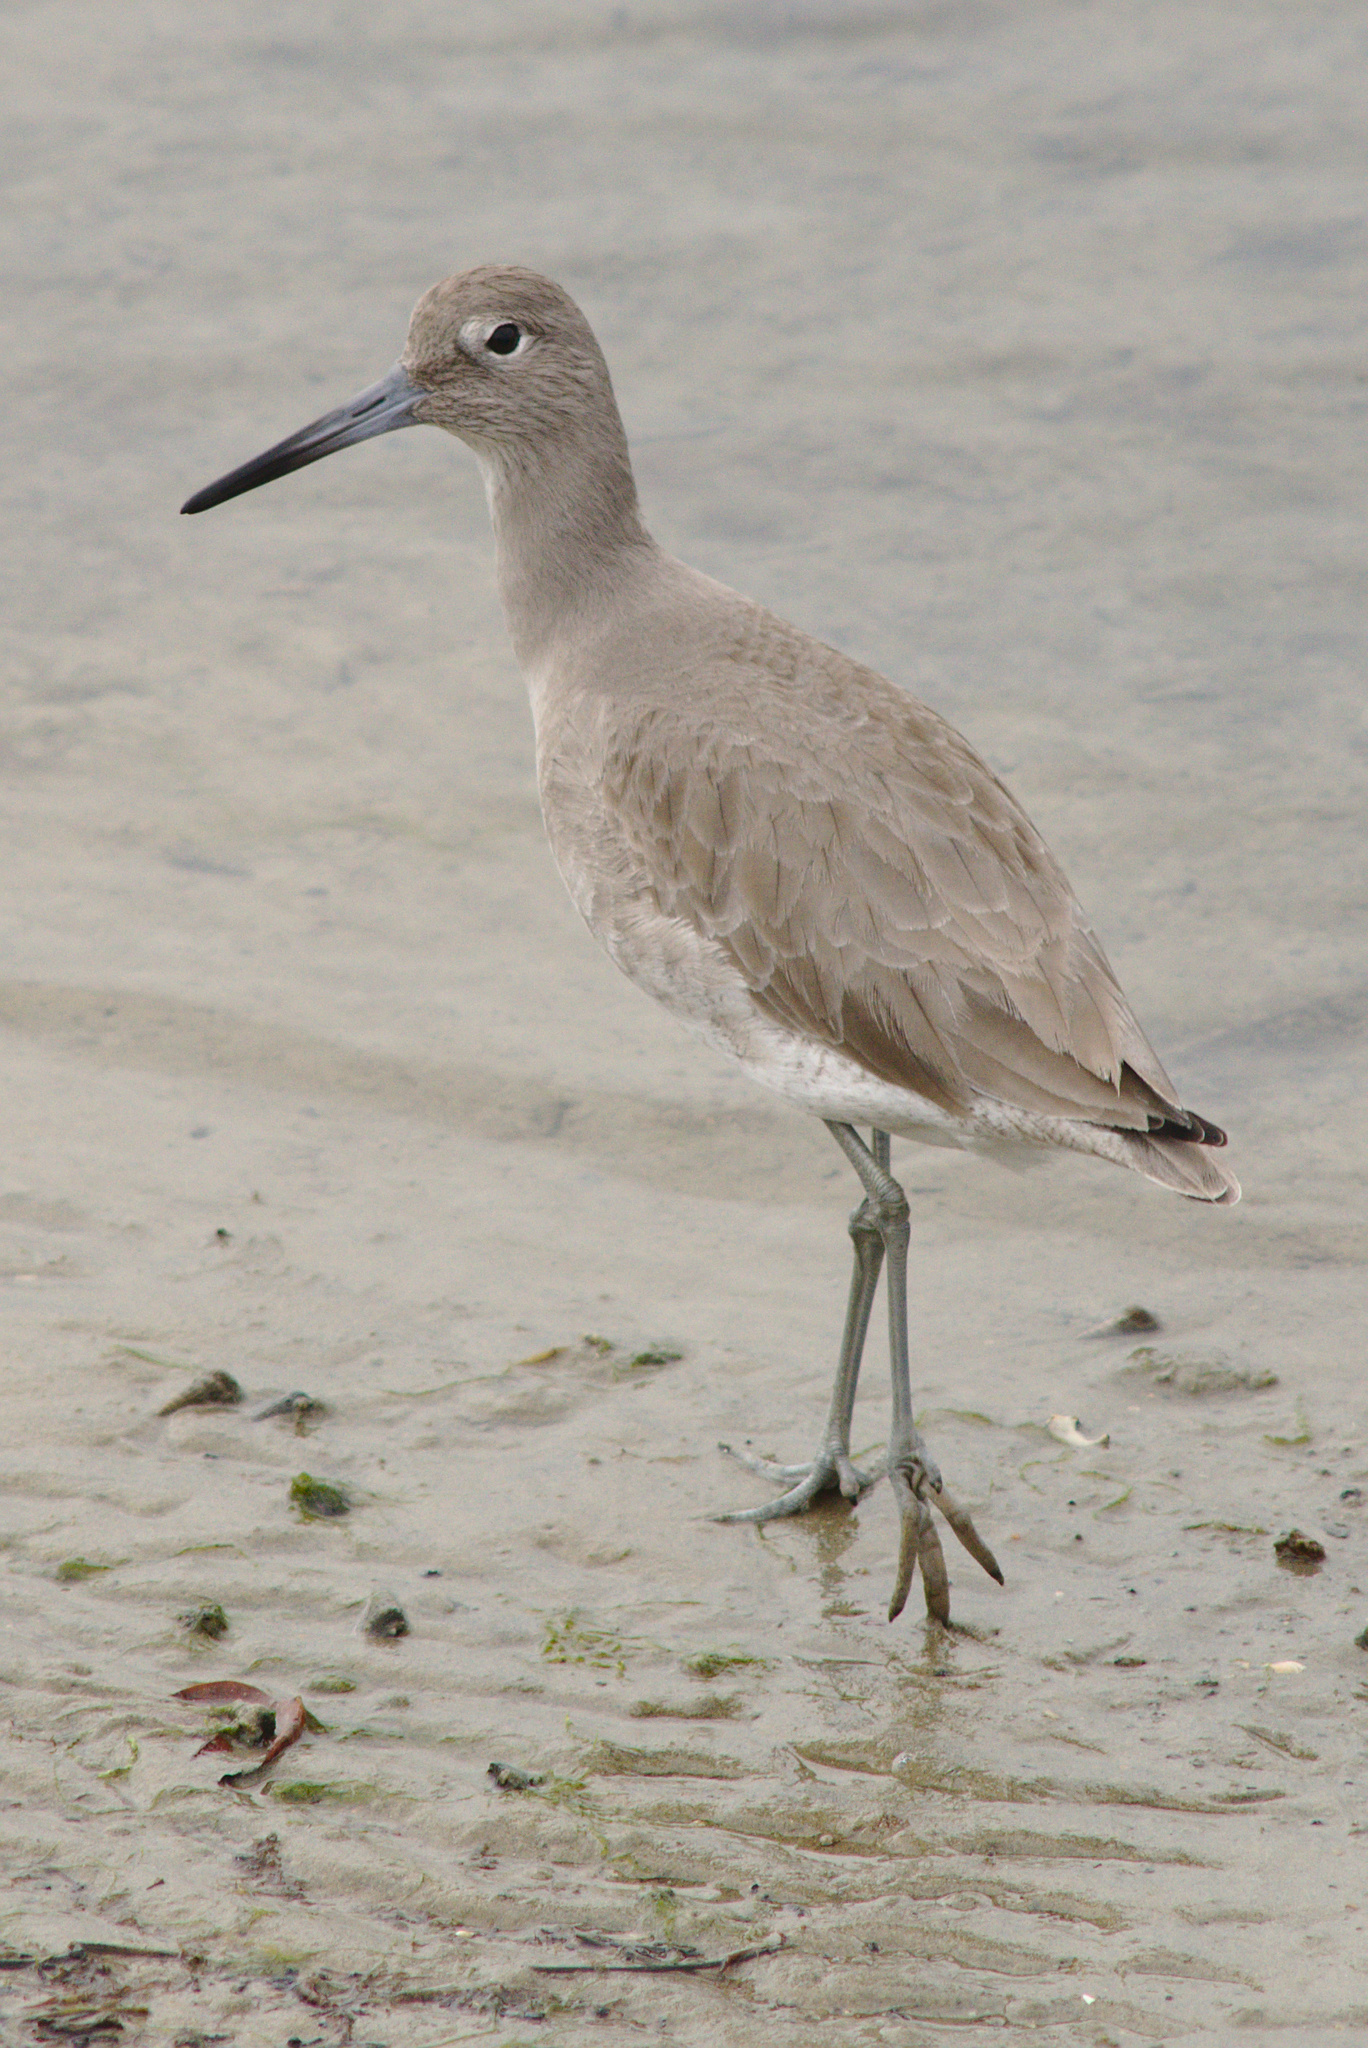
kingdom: Animalia
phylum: Chordata
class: Aves
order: Charadriiformes
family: Scolopacidae
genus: Tringa
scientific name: Tringa semipalmata
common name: Willet
